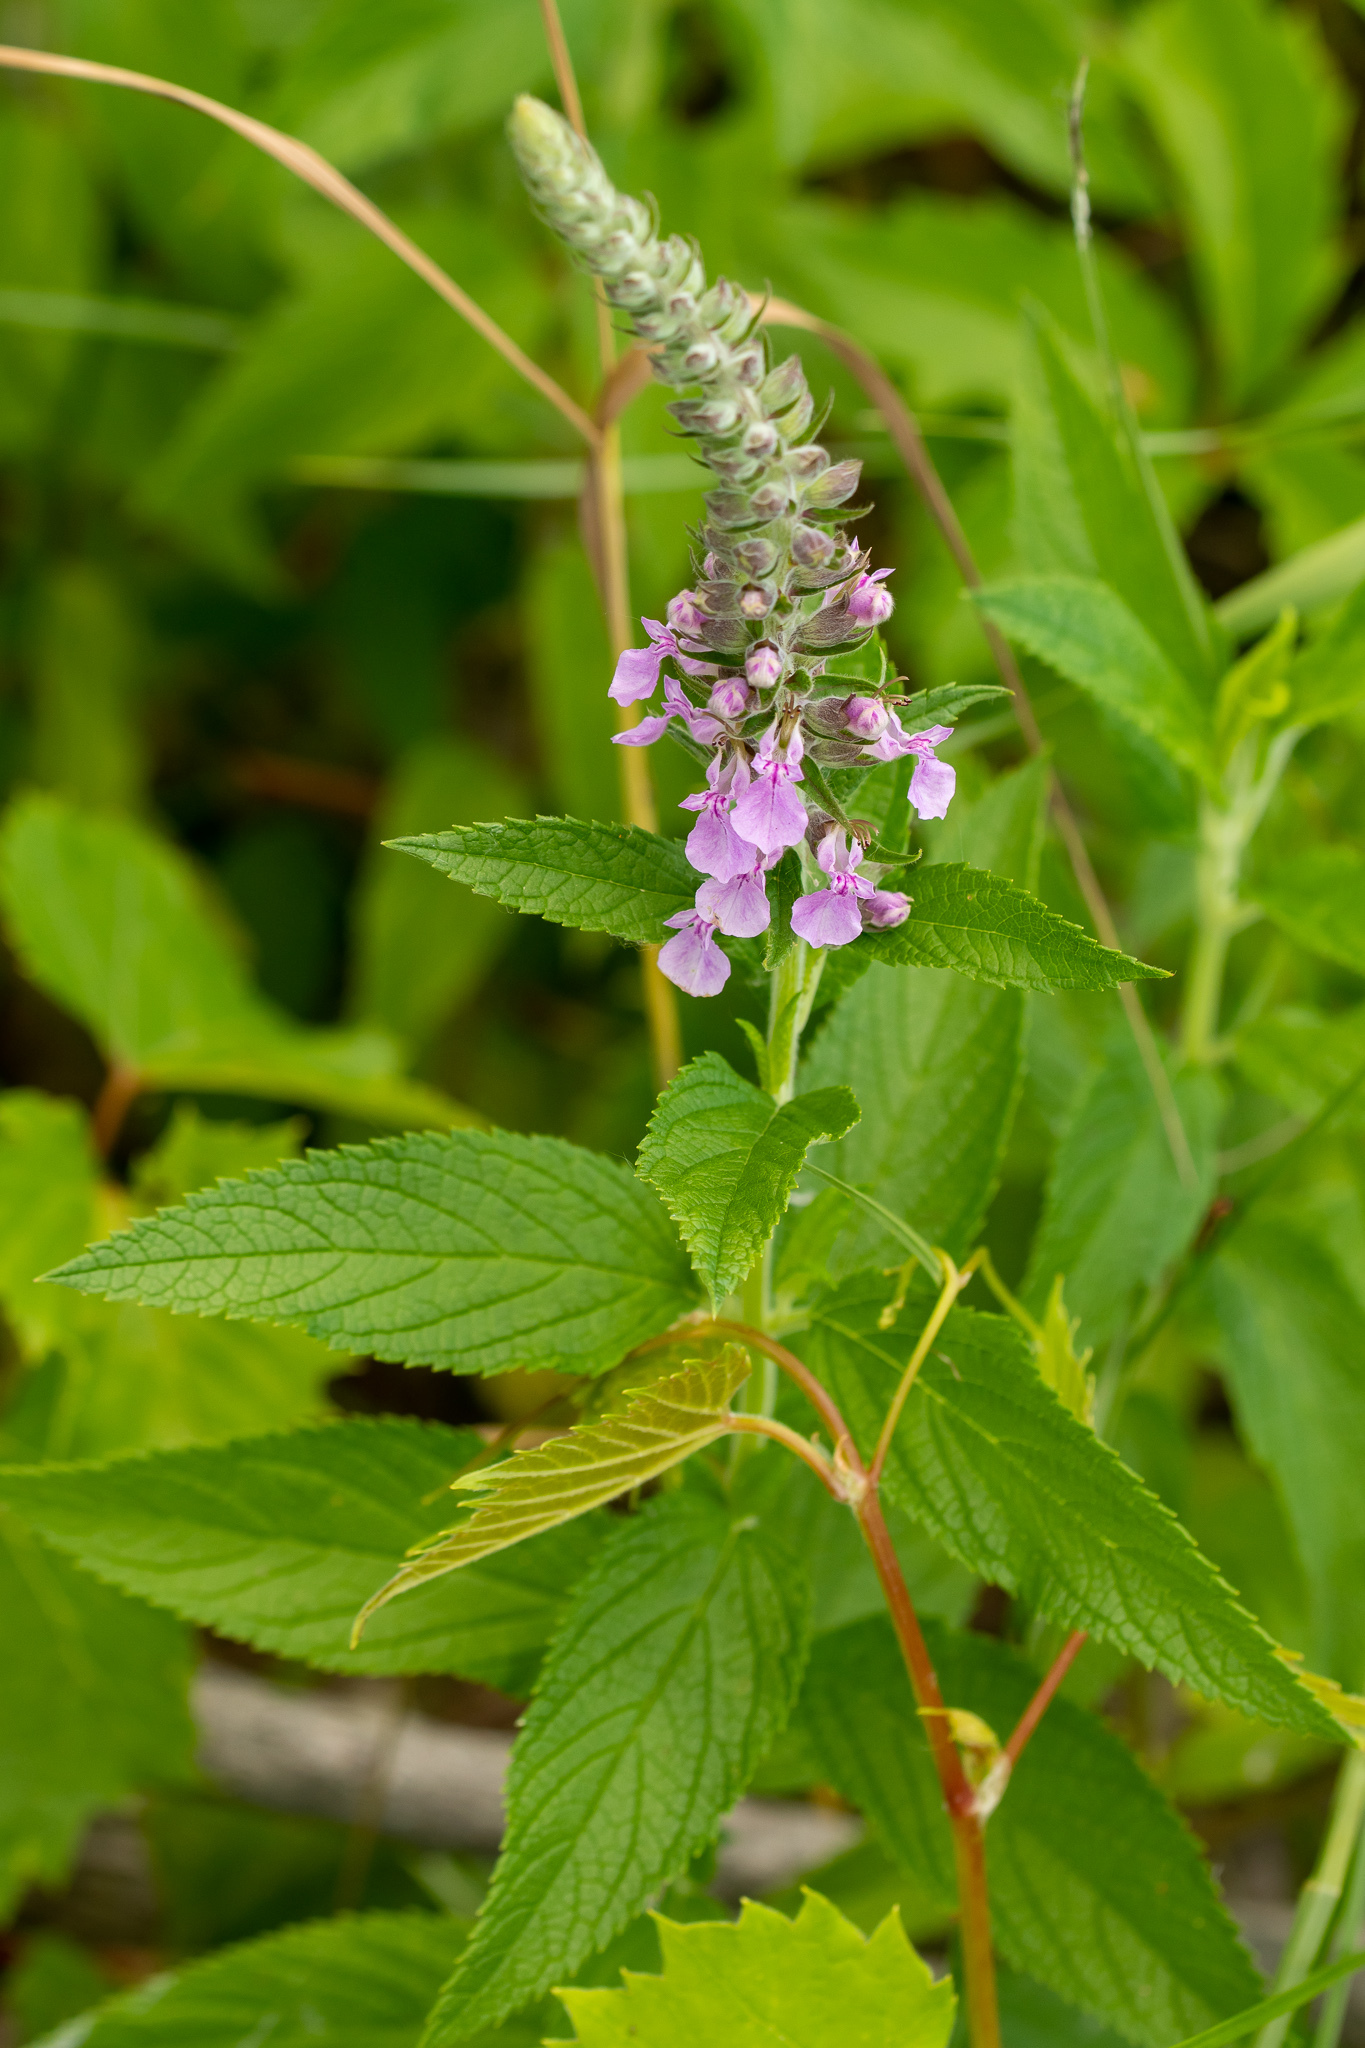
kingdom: Plantae
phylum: Tracheophyta
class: Magnoliopsida
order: Lamiales
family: Lamiaceae
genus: Teucrium
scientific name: Teucrium canadense
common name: American germander
